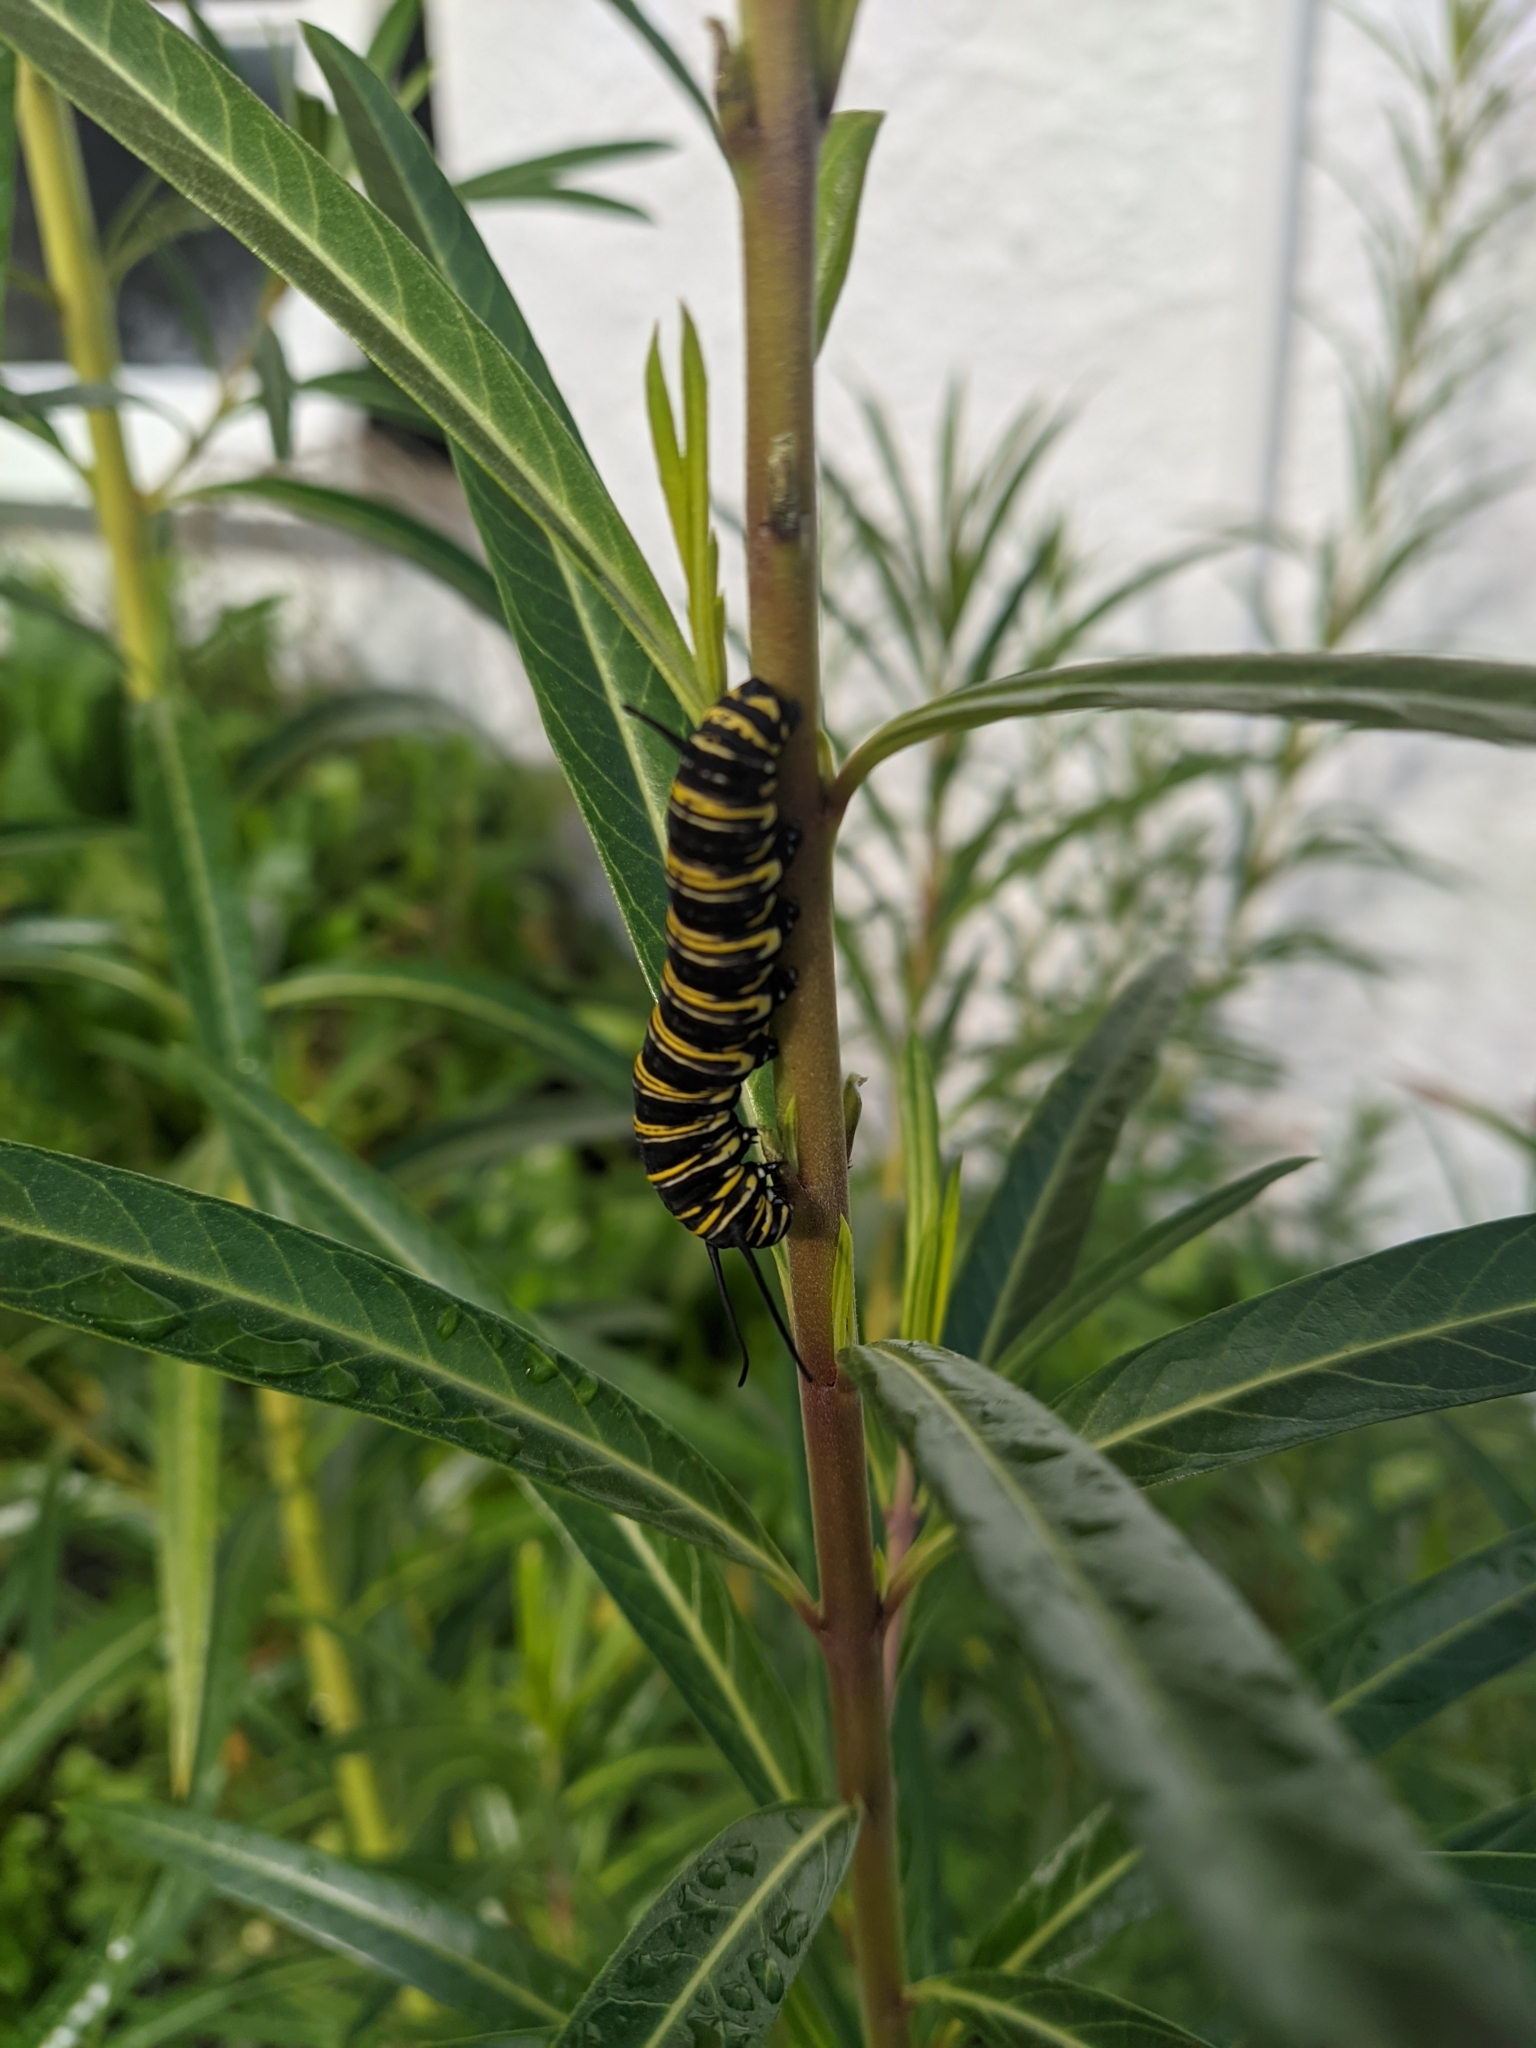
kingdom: Animalia
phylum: Arthropoda
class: Insecta
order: Lepidoptera
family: Nymphalidae
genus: Danaus
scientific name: Danaus plexippus
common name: Monarch
